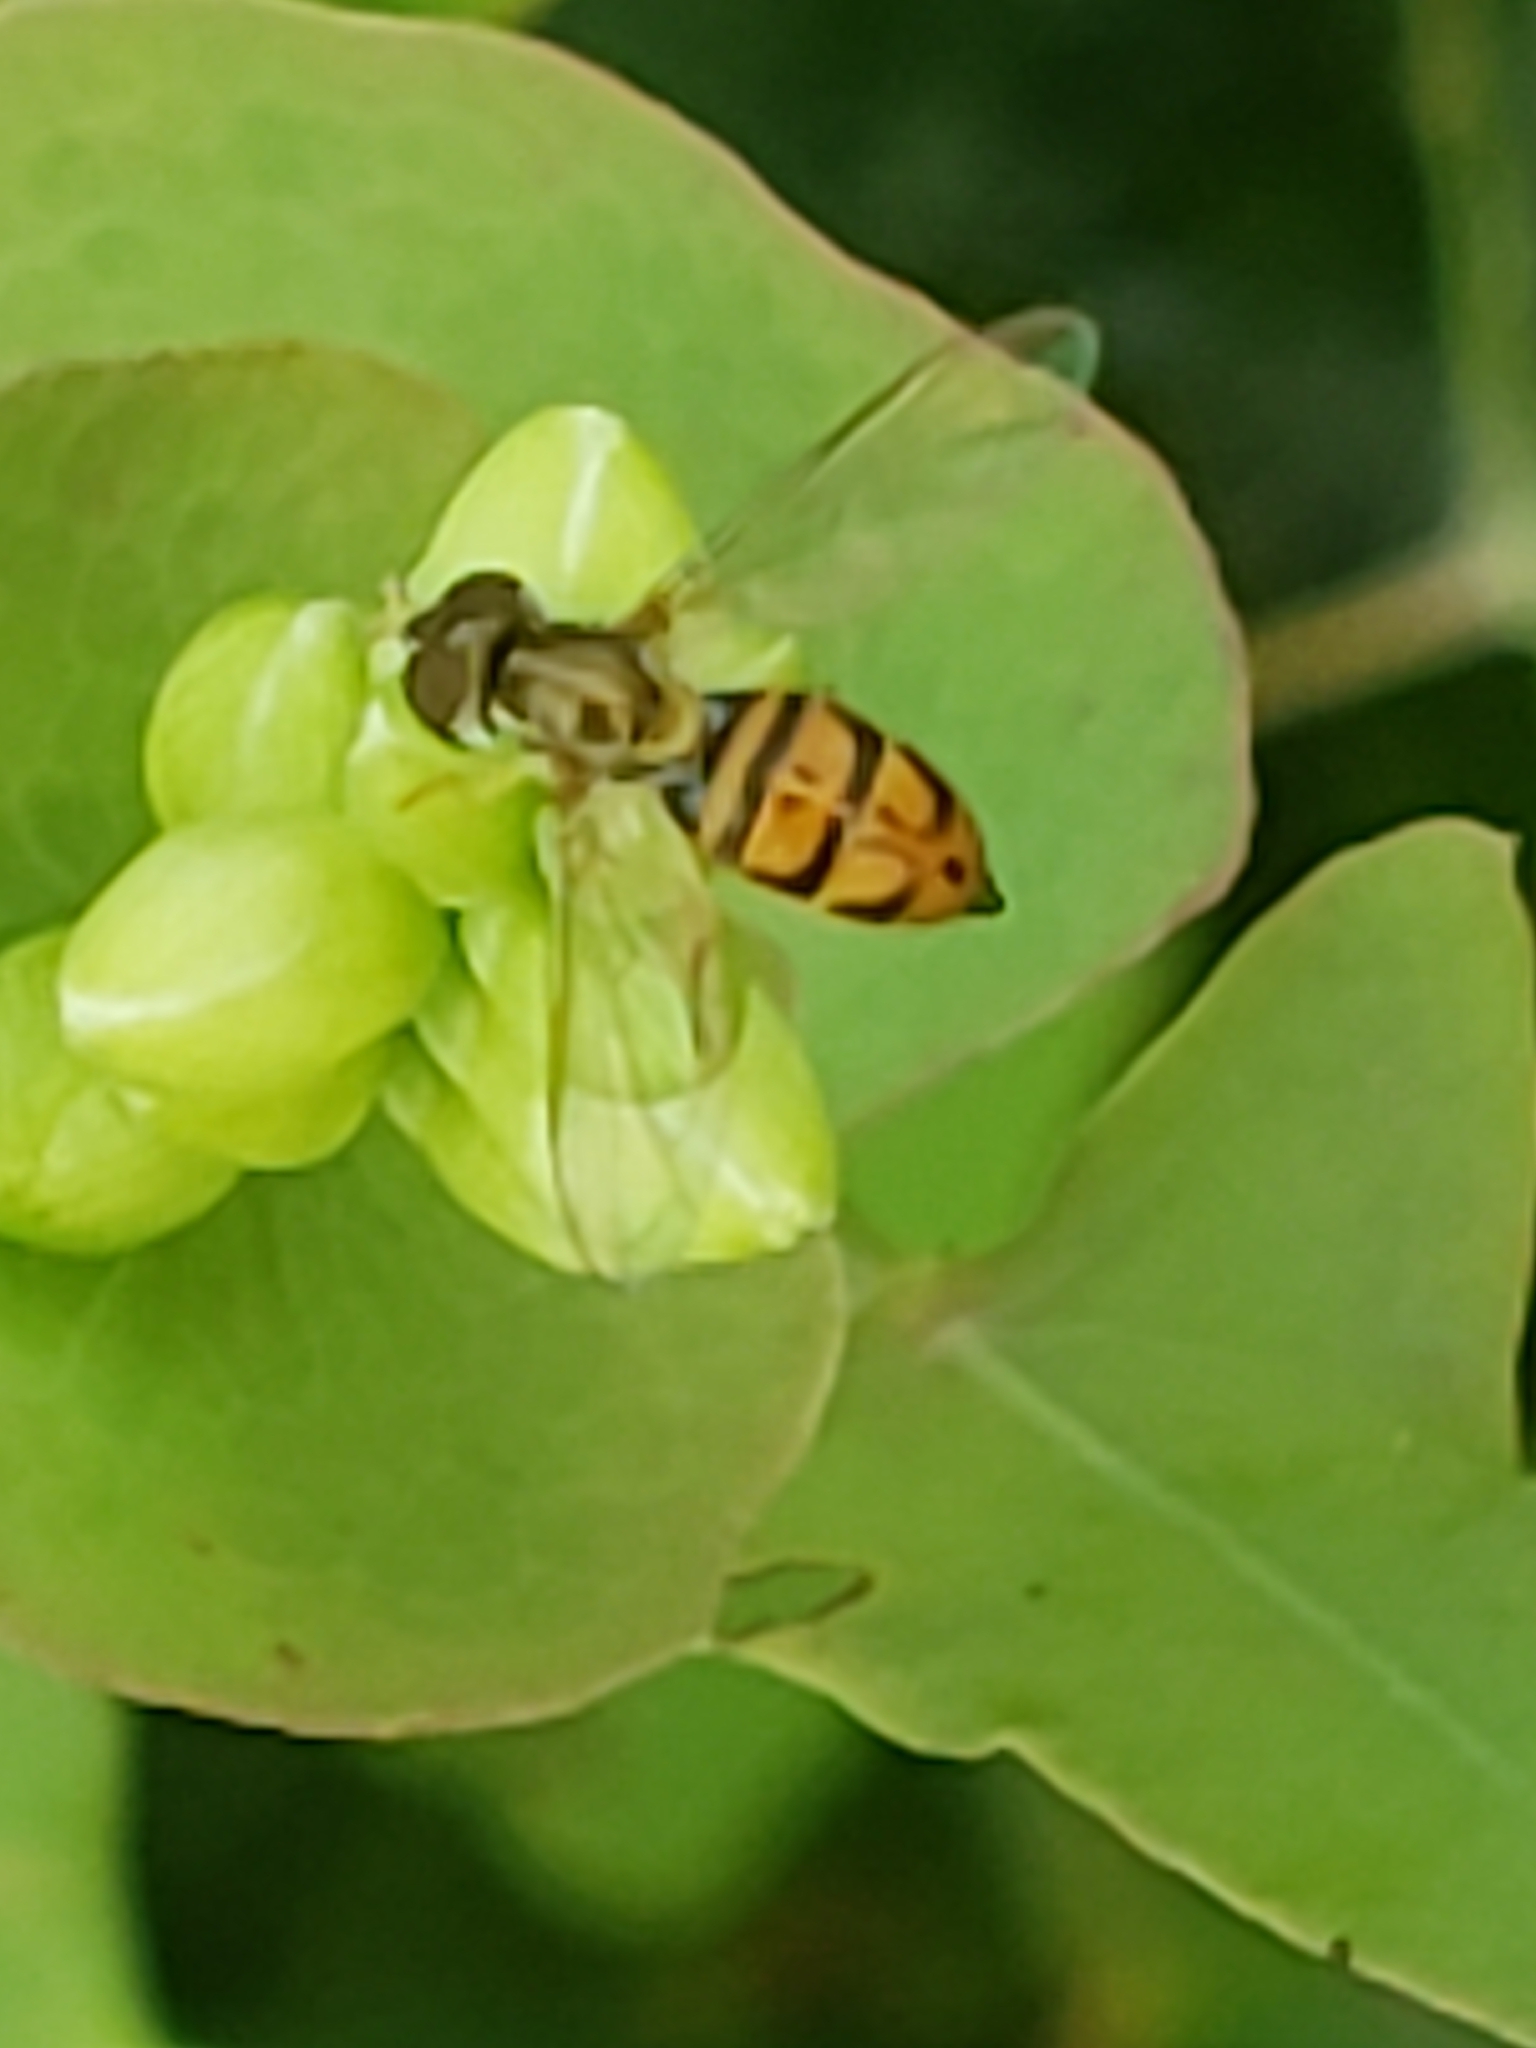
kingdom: Animalia
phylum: Arthropoda
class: Insecta
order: Diptera
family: Syrphidae
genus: Toxomerus
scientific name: Toxomerus marginatus
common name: Syrphid fly
